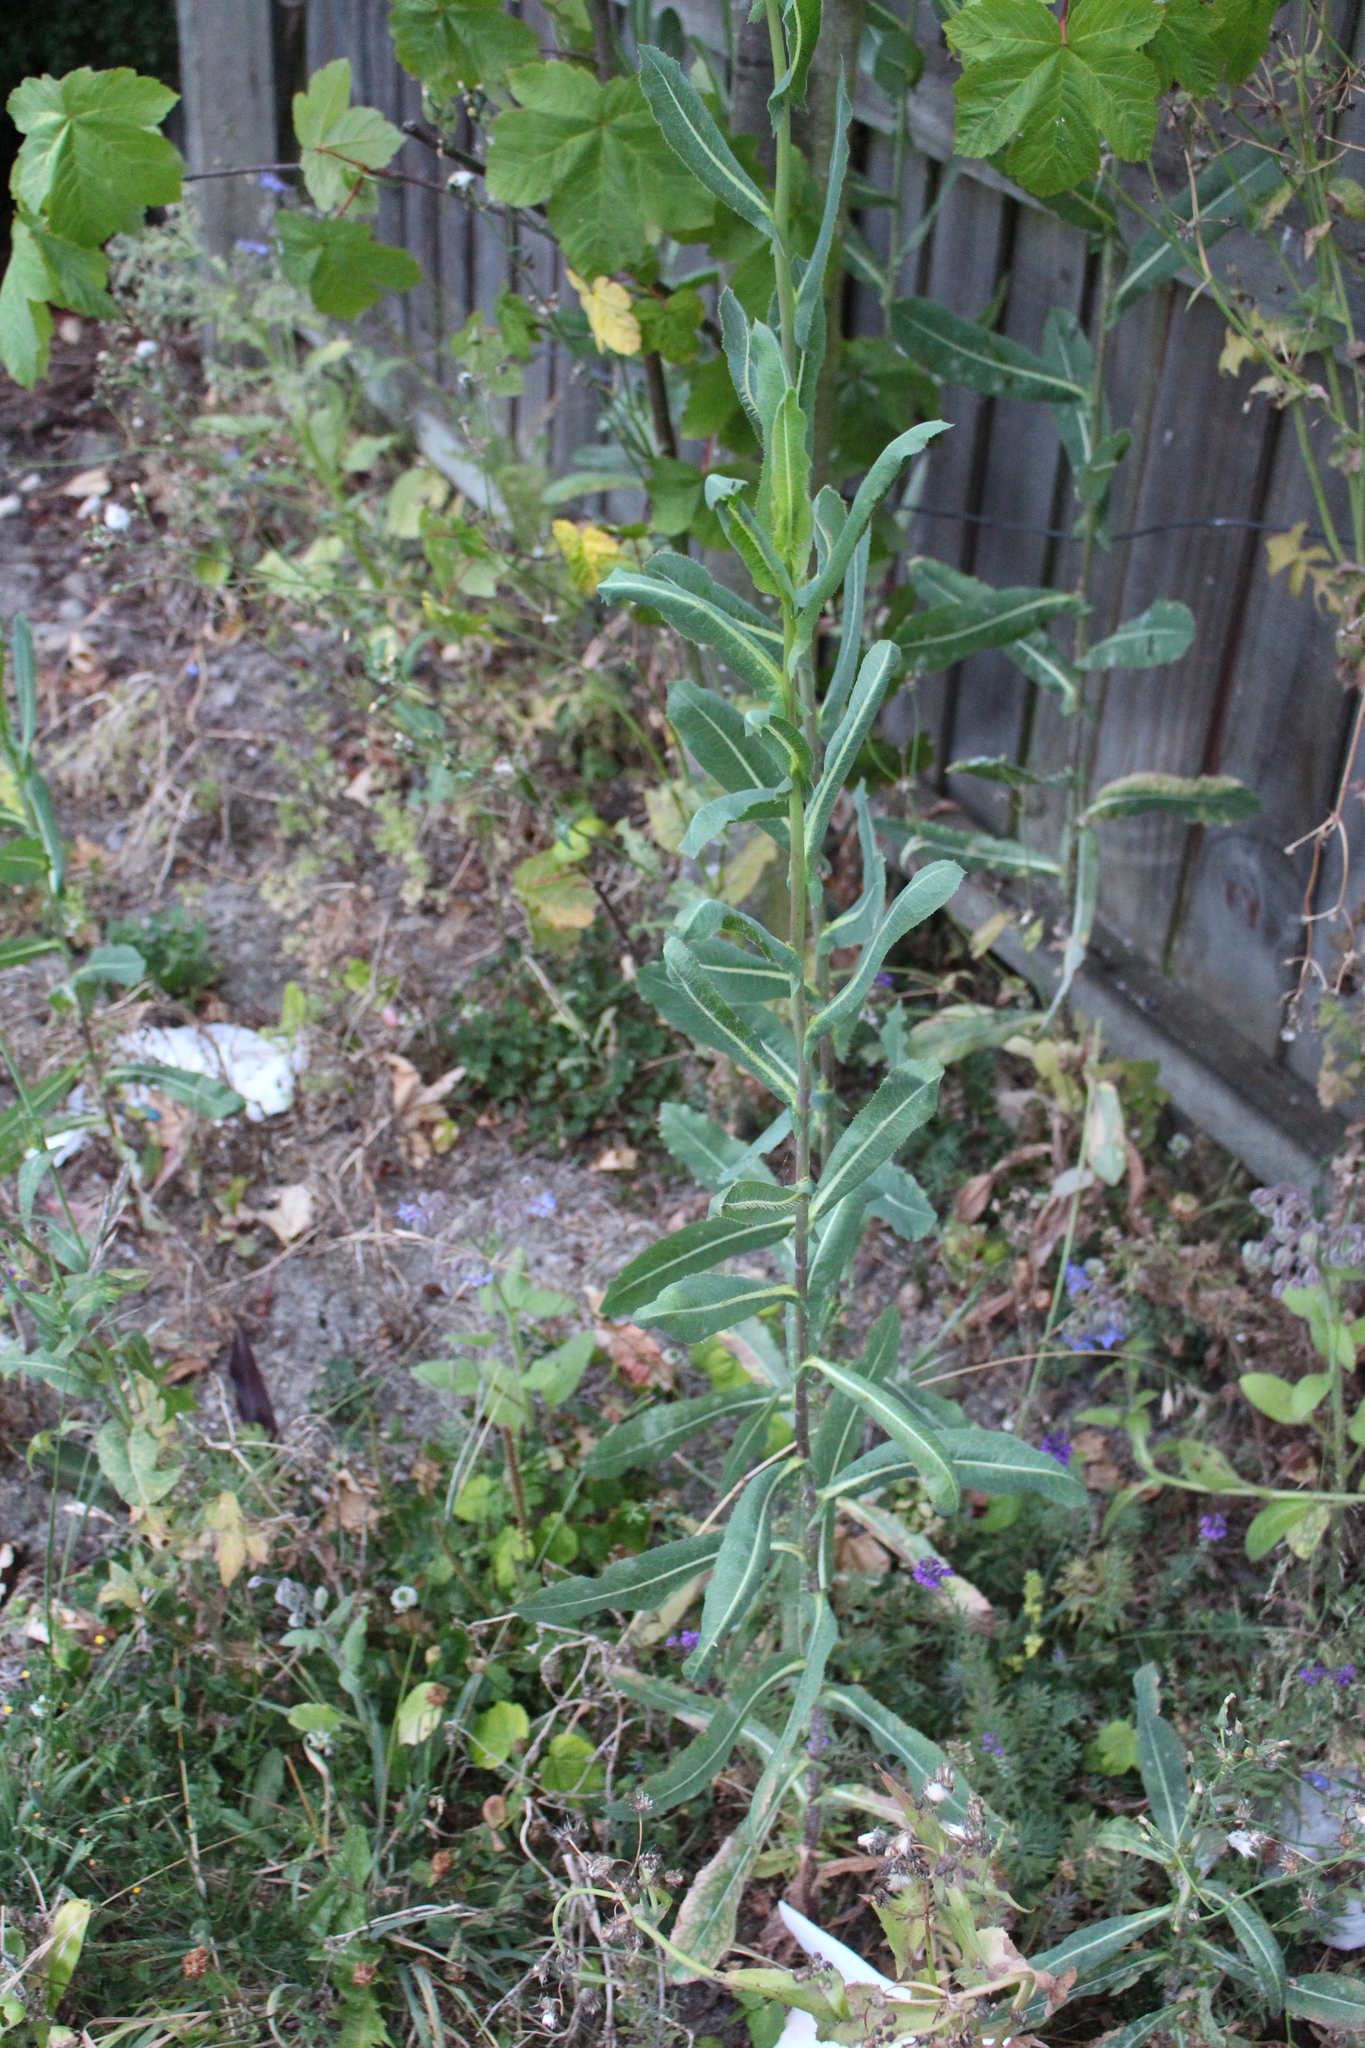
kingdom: Plantae
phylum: Tracheophyta
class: Magnoliopsida
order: Asterales
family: Asteraceae
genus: Lactuca
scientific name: Lactuca serriola
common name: Prickly lettuce
